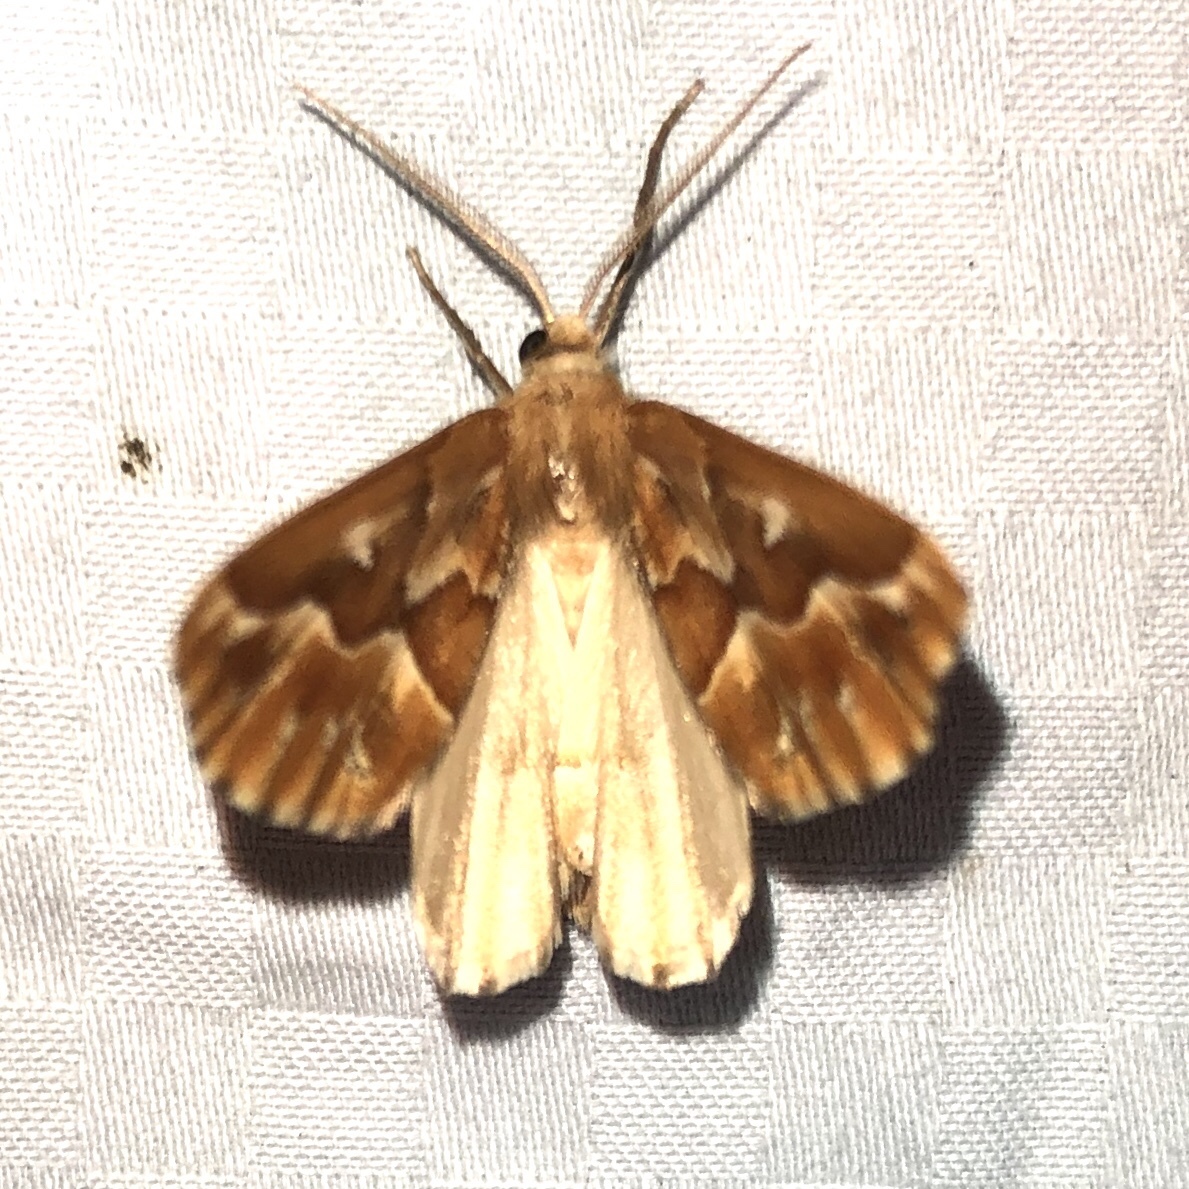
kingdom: Animalia
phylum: Arthropoda
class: Insecta
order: Lepidoptera
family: Geometridae
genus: Caripeta
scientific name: Caripeta piniata
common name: Northern pine looper moth
